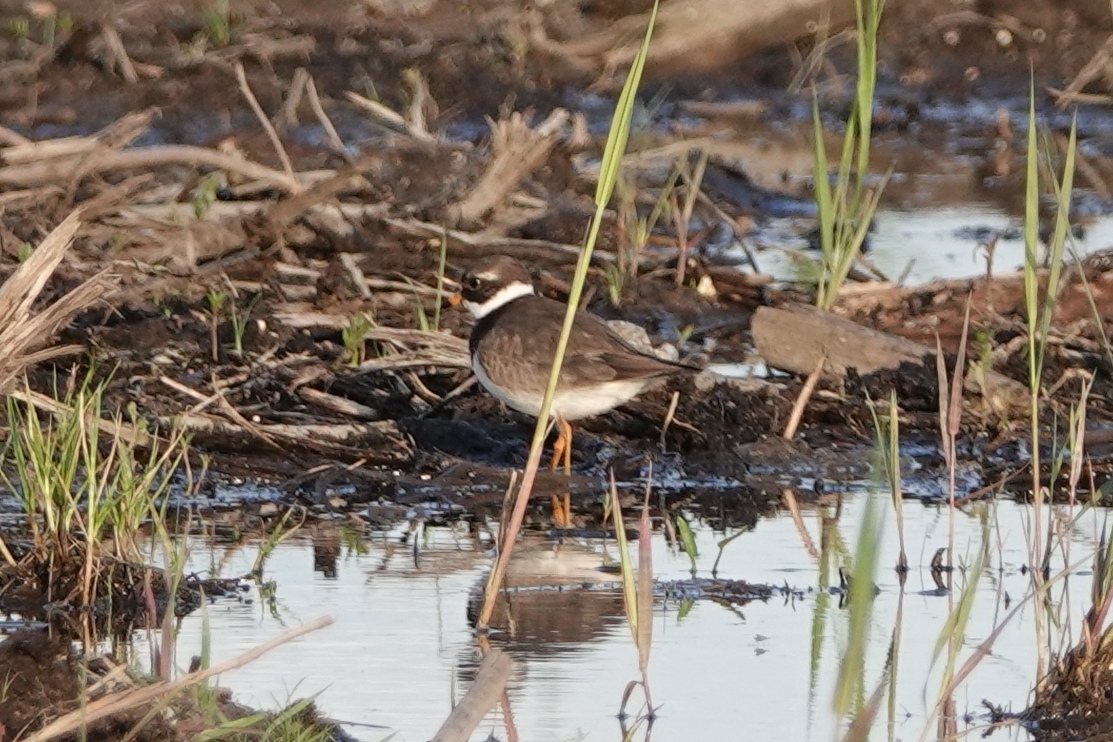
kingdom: Animalia
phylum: Chordata
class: Aves
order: Charadriiformes
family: Charadriidae
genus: Charadrius
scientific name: Charadrius hiaticula
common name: Common ringed plover
